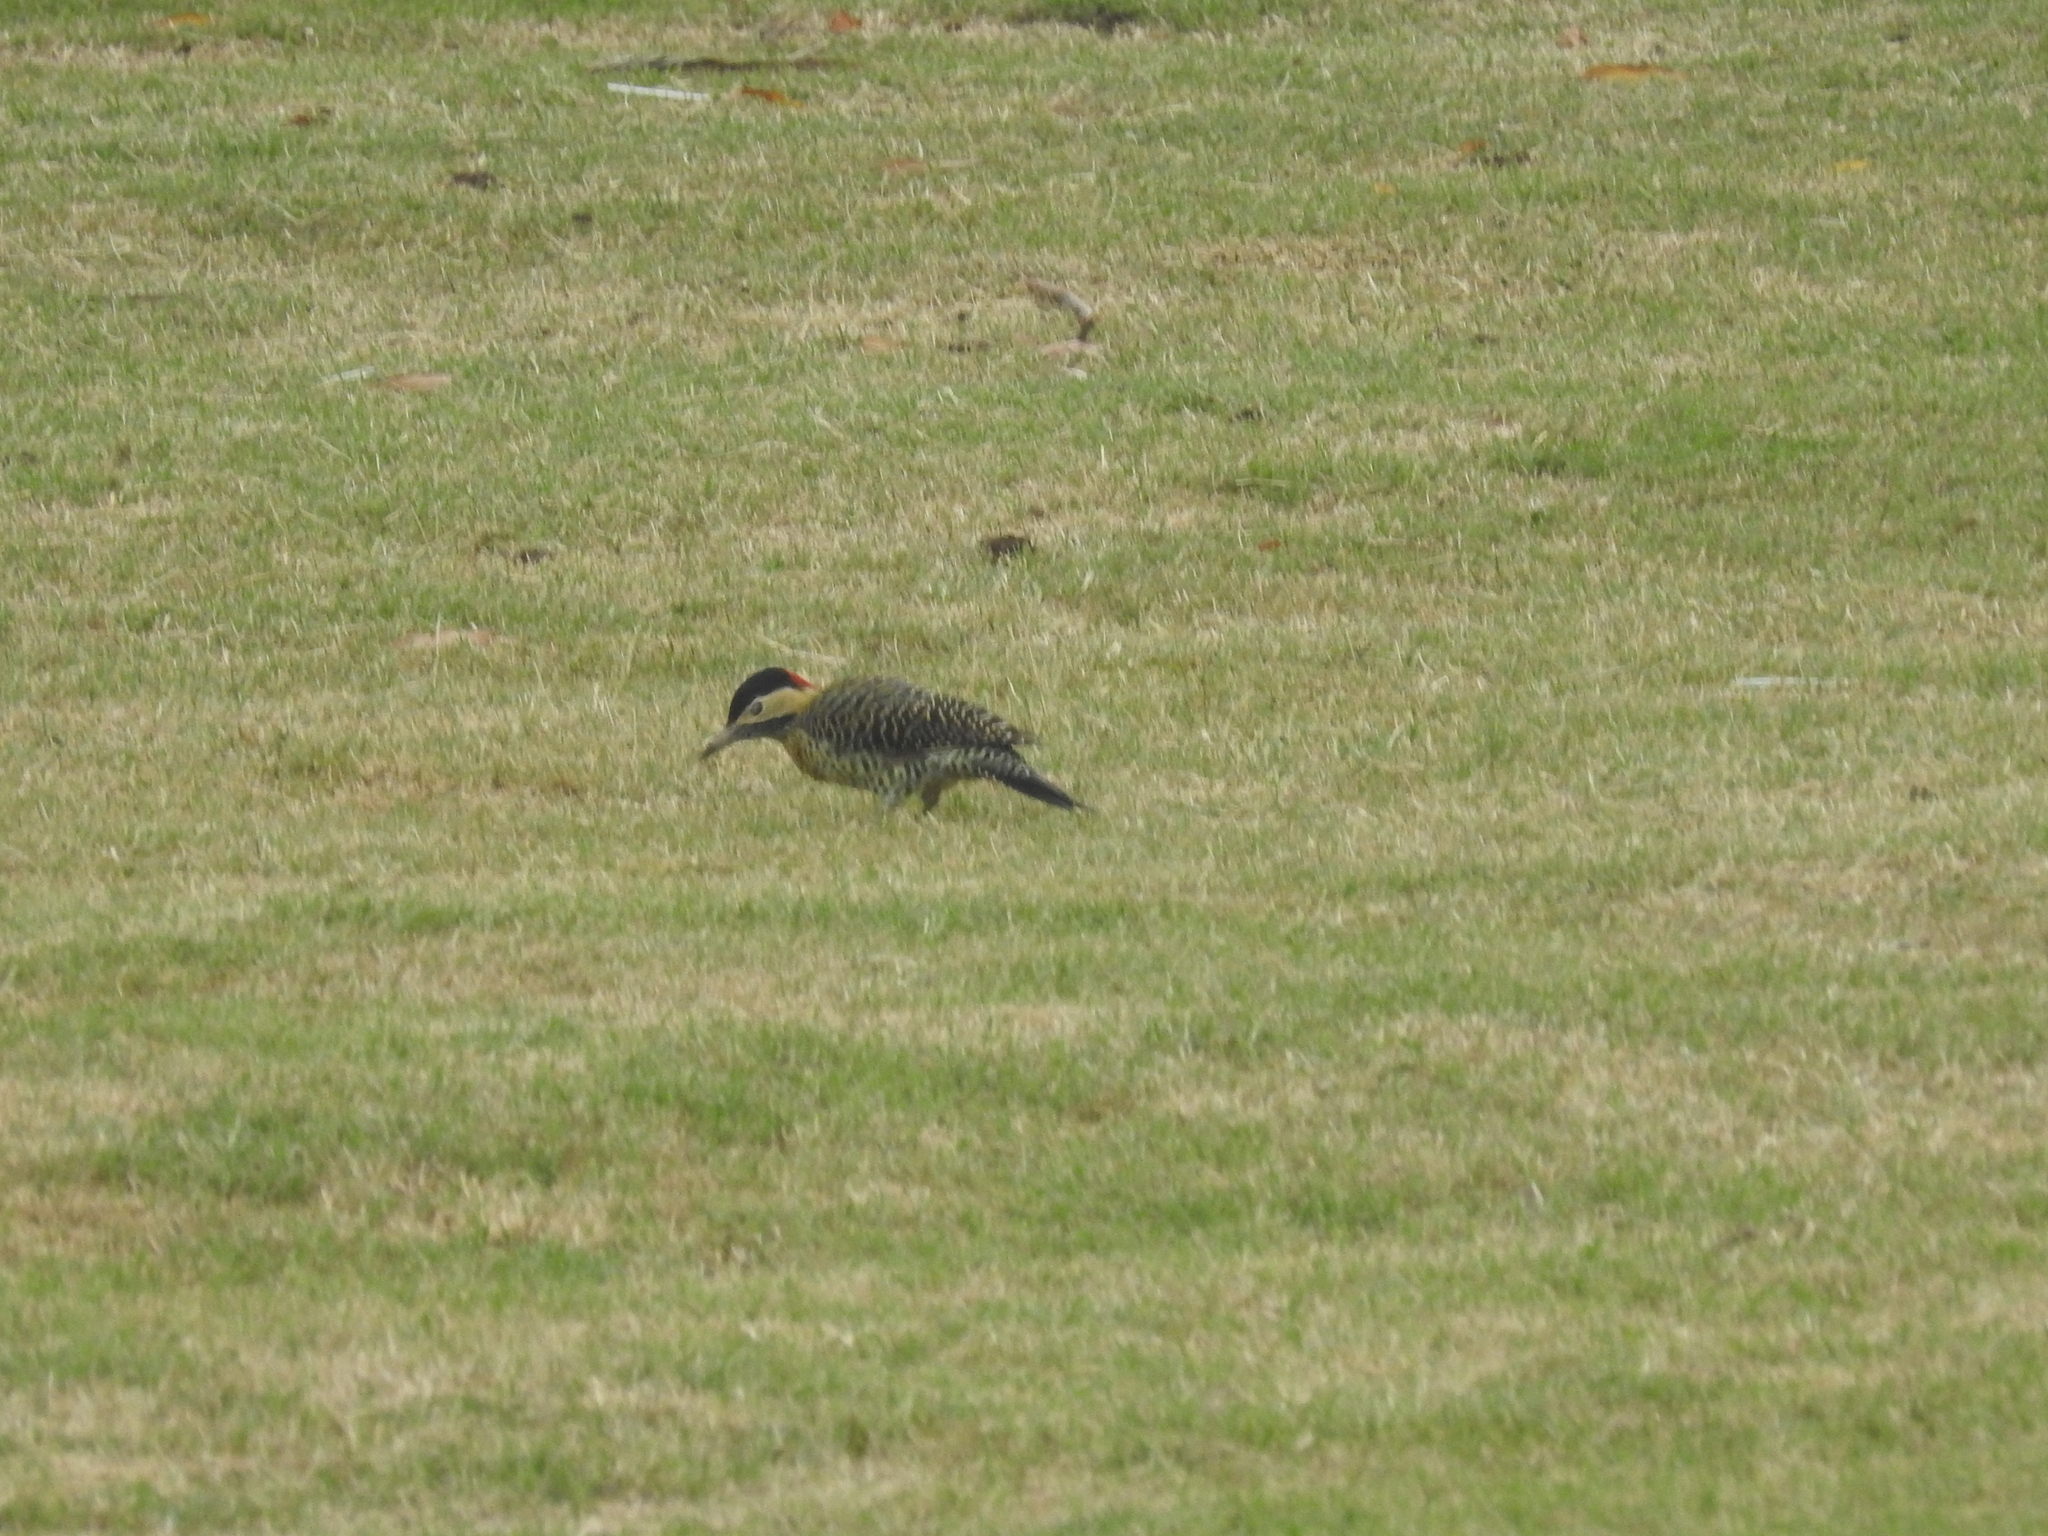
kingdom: Animalia
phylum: Chordata
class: Aves
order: Piciformes
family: Picidae
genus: Colaptes
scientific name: Colaptes melanochloros
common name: Green-barred woodpecker
